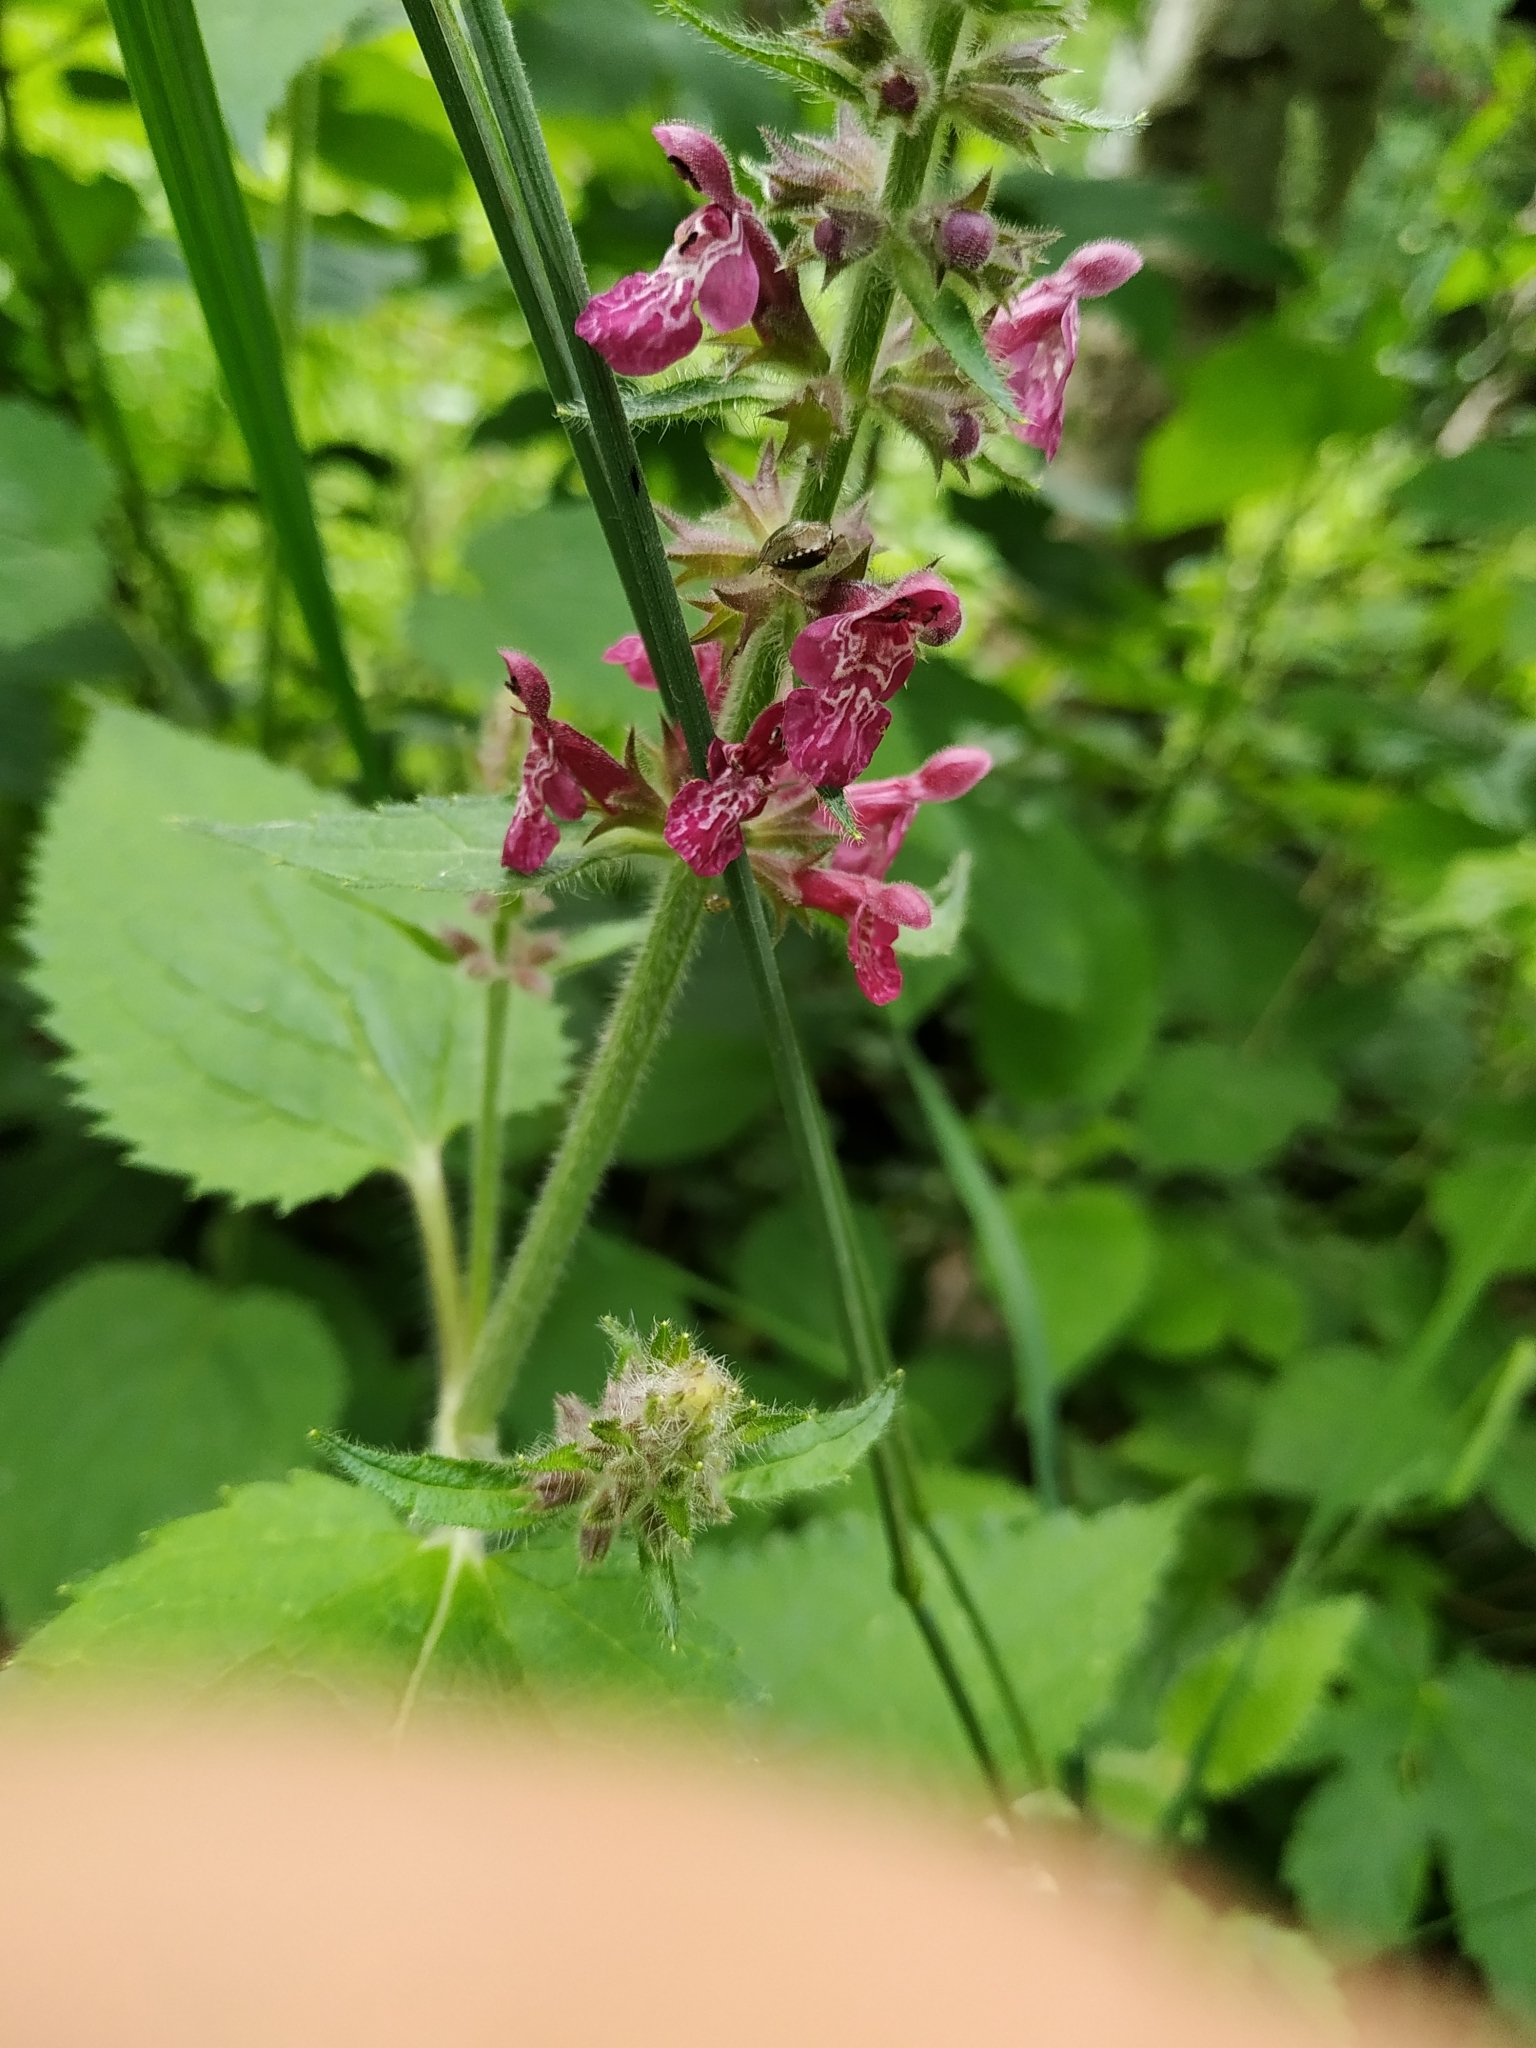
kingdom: Plantae
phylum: Tracheophyta
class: Magnoliopsida
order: Lamiales
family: Lamiaceae
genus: Stachys
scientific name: Stachys sylvatica
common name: Hedge woundwort
